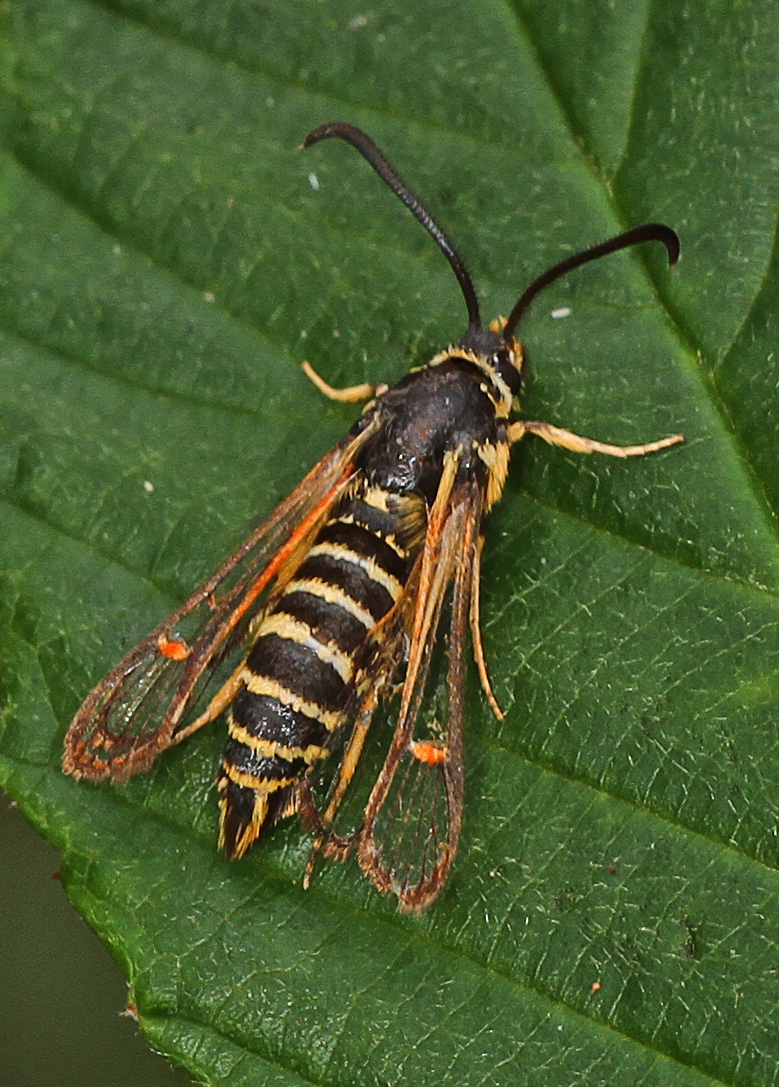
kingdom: Animalia
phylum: Arthropoda
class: Insecta
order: Lepidoptera
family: Sesiidae
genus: Synanthedon
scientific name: Synanthedon rileyana
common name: Riley's clearwing moth
